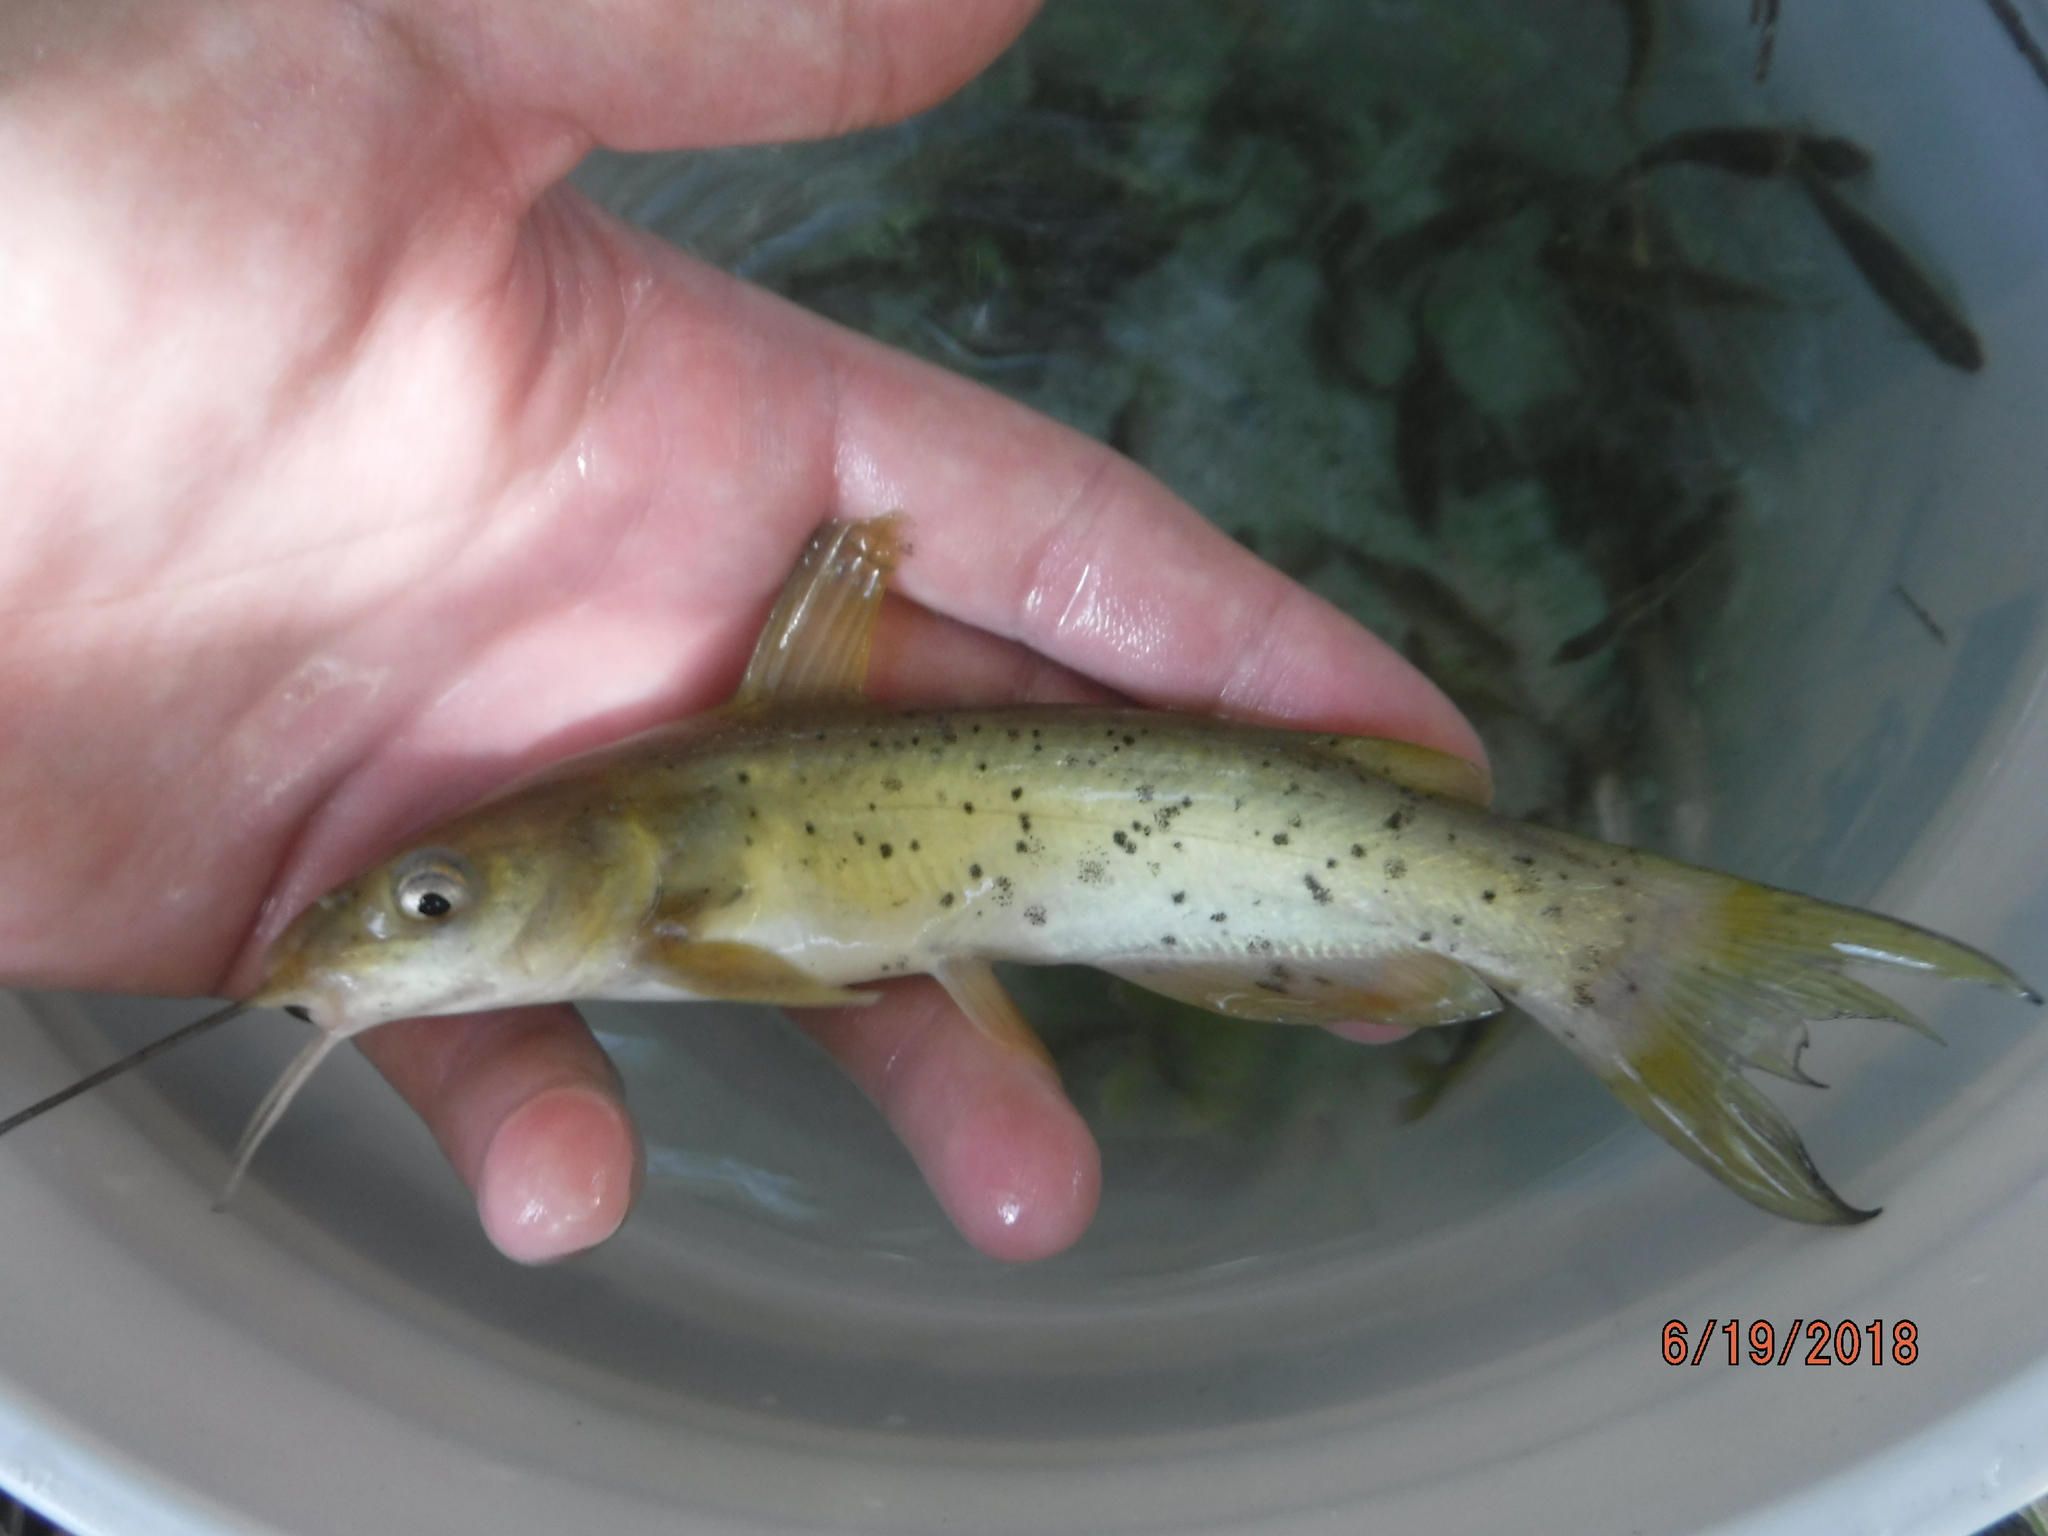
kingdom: Animalia
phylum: Chordata
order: Siluriformes
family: Ictaluridae
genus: Ictalurus
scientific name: Ictalurus lupus
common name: Headwater catfish
